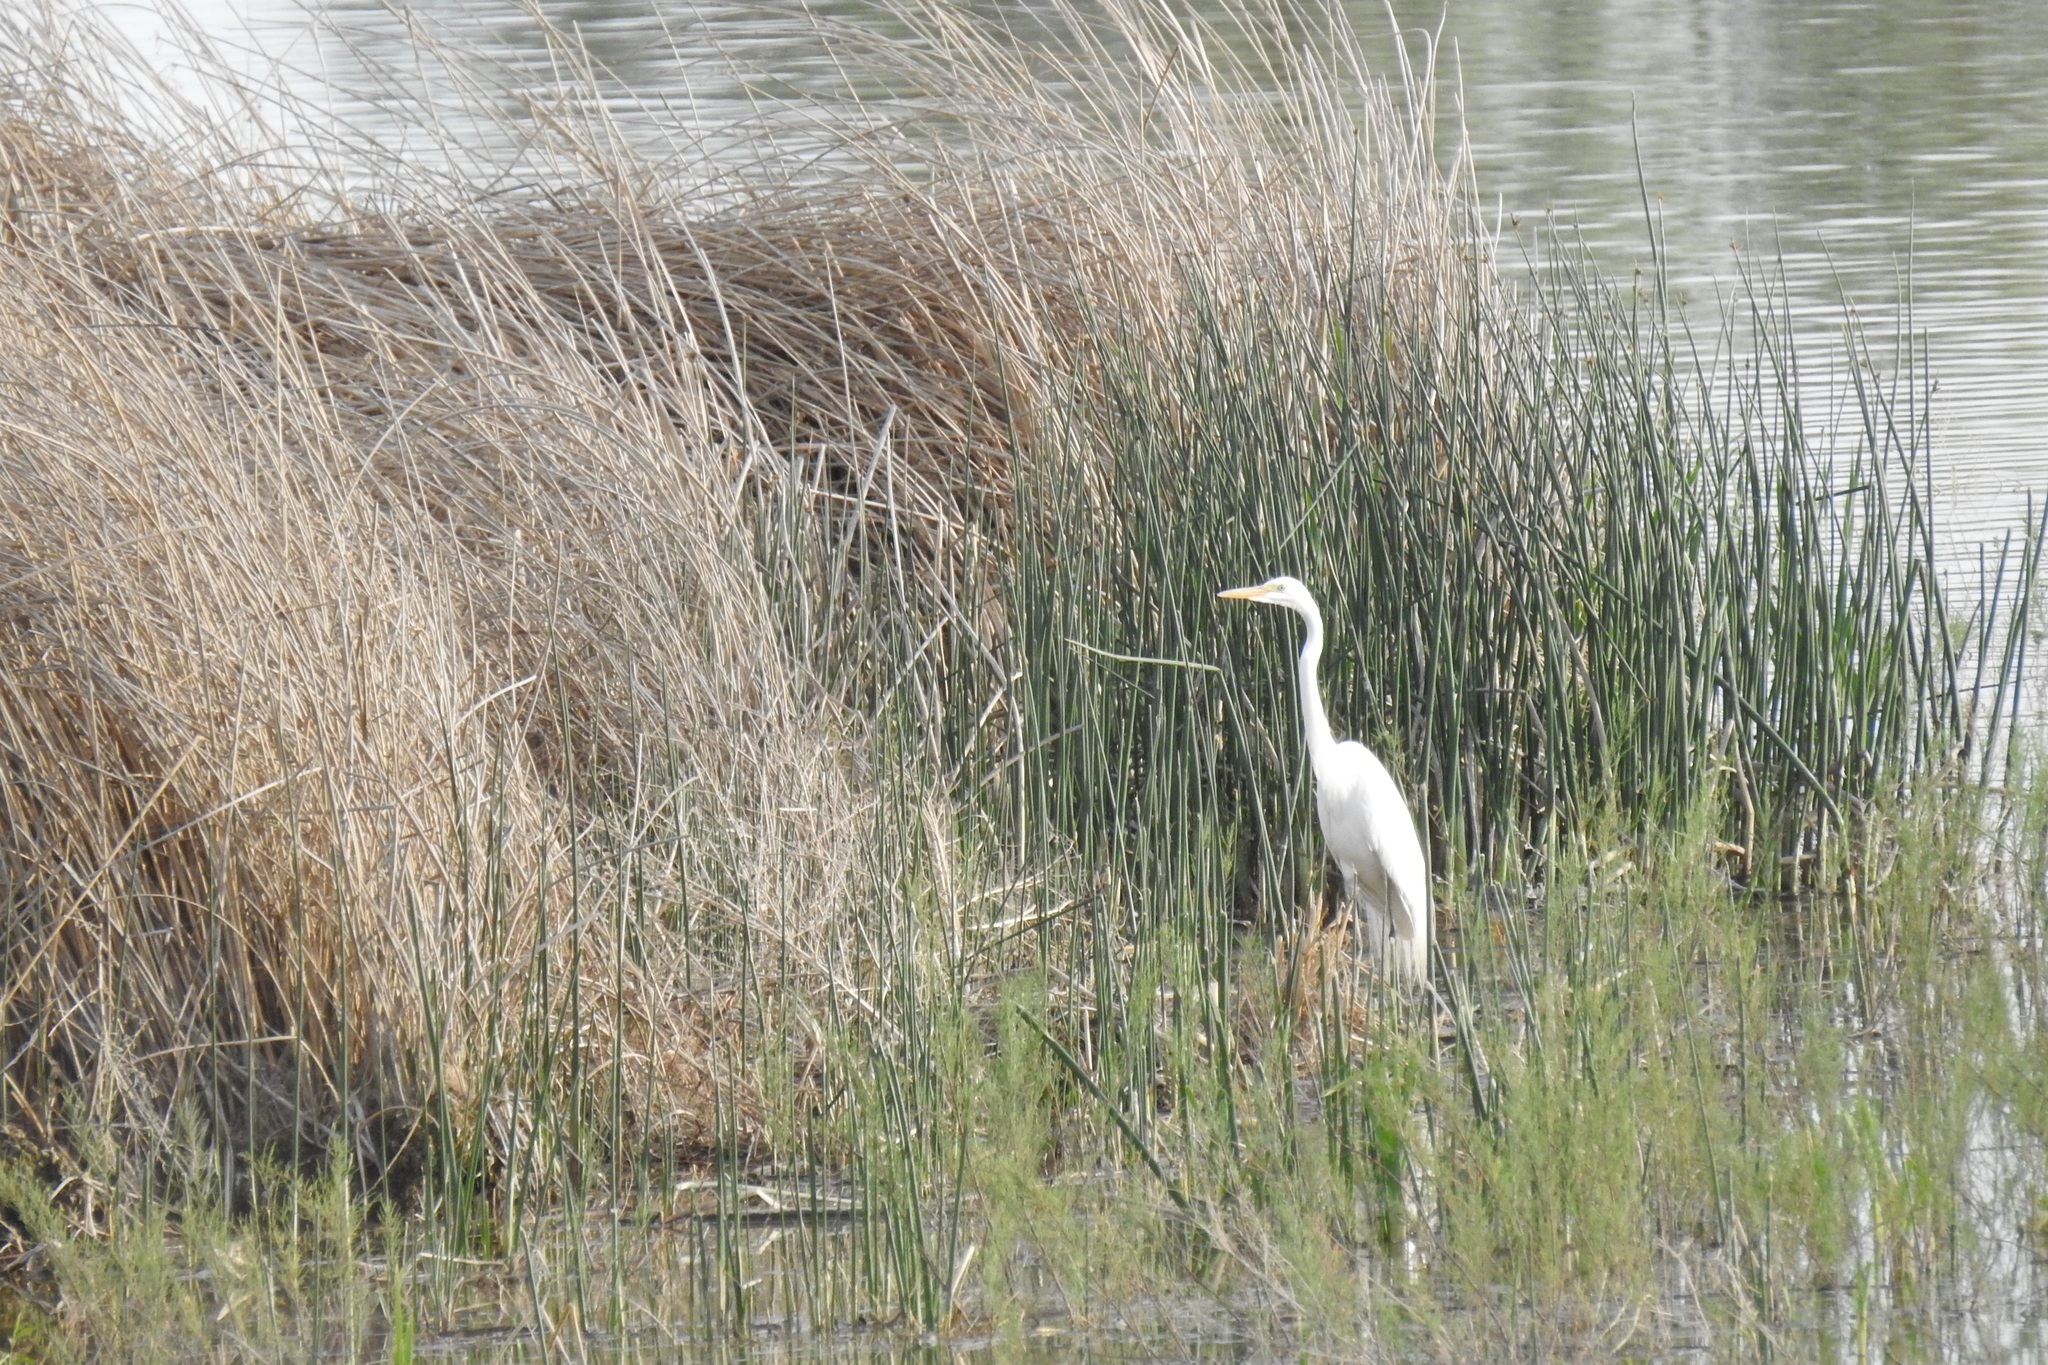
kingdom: Animalia
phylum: Chordata
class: Aves
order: Pelecaniformes
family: Ardeidae
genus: Ardea
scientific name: Ardea alba
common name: Great egret
